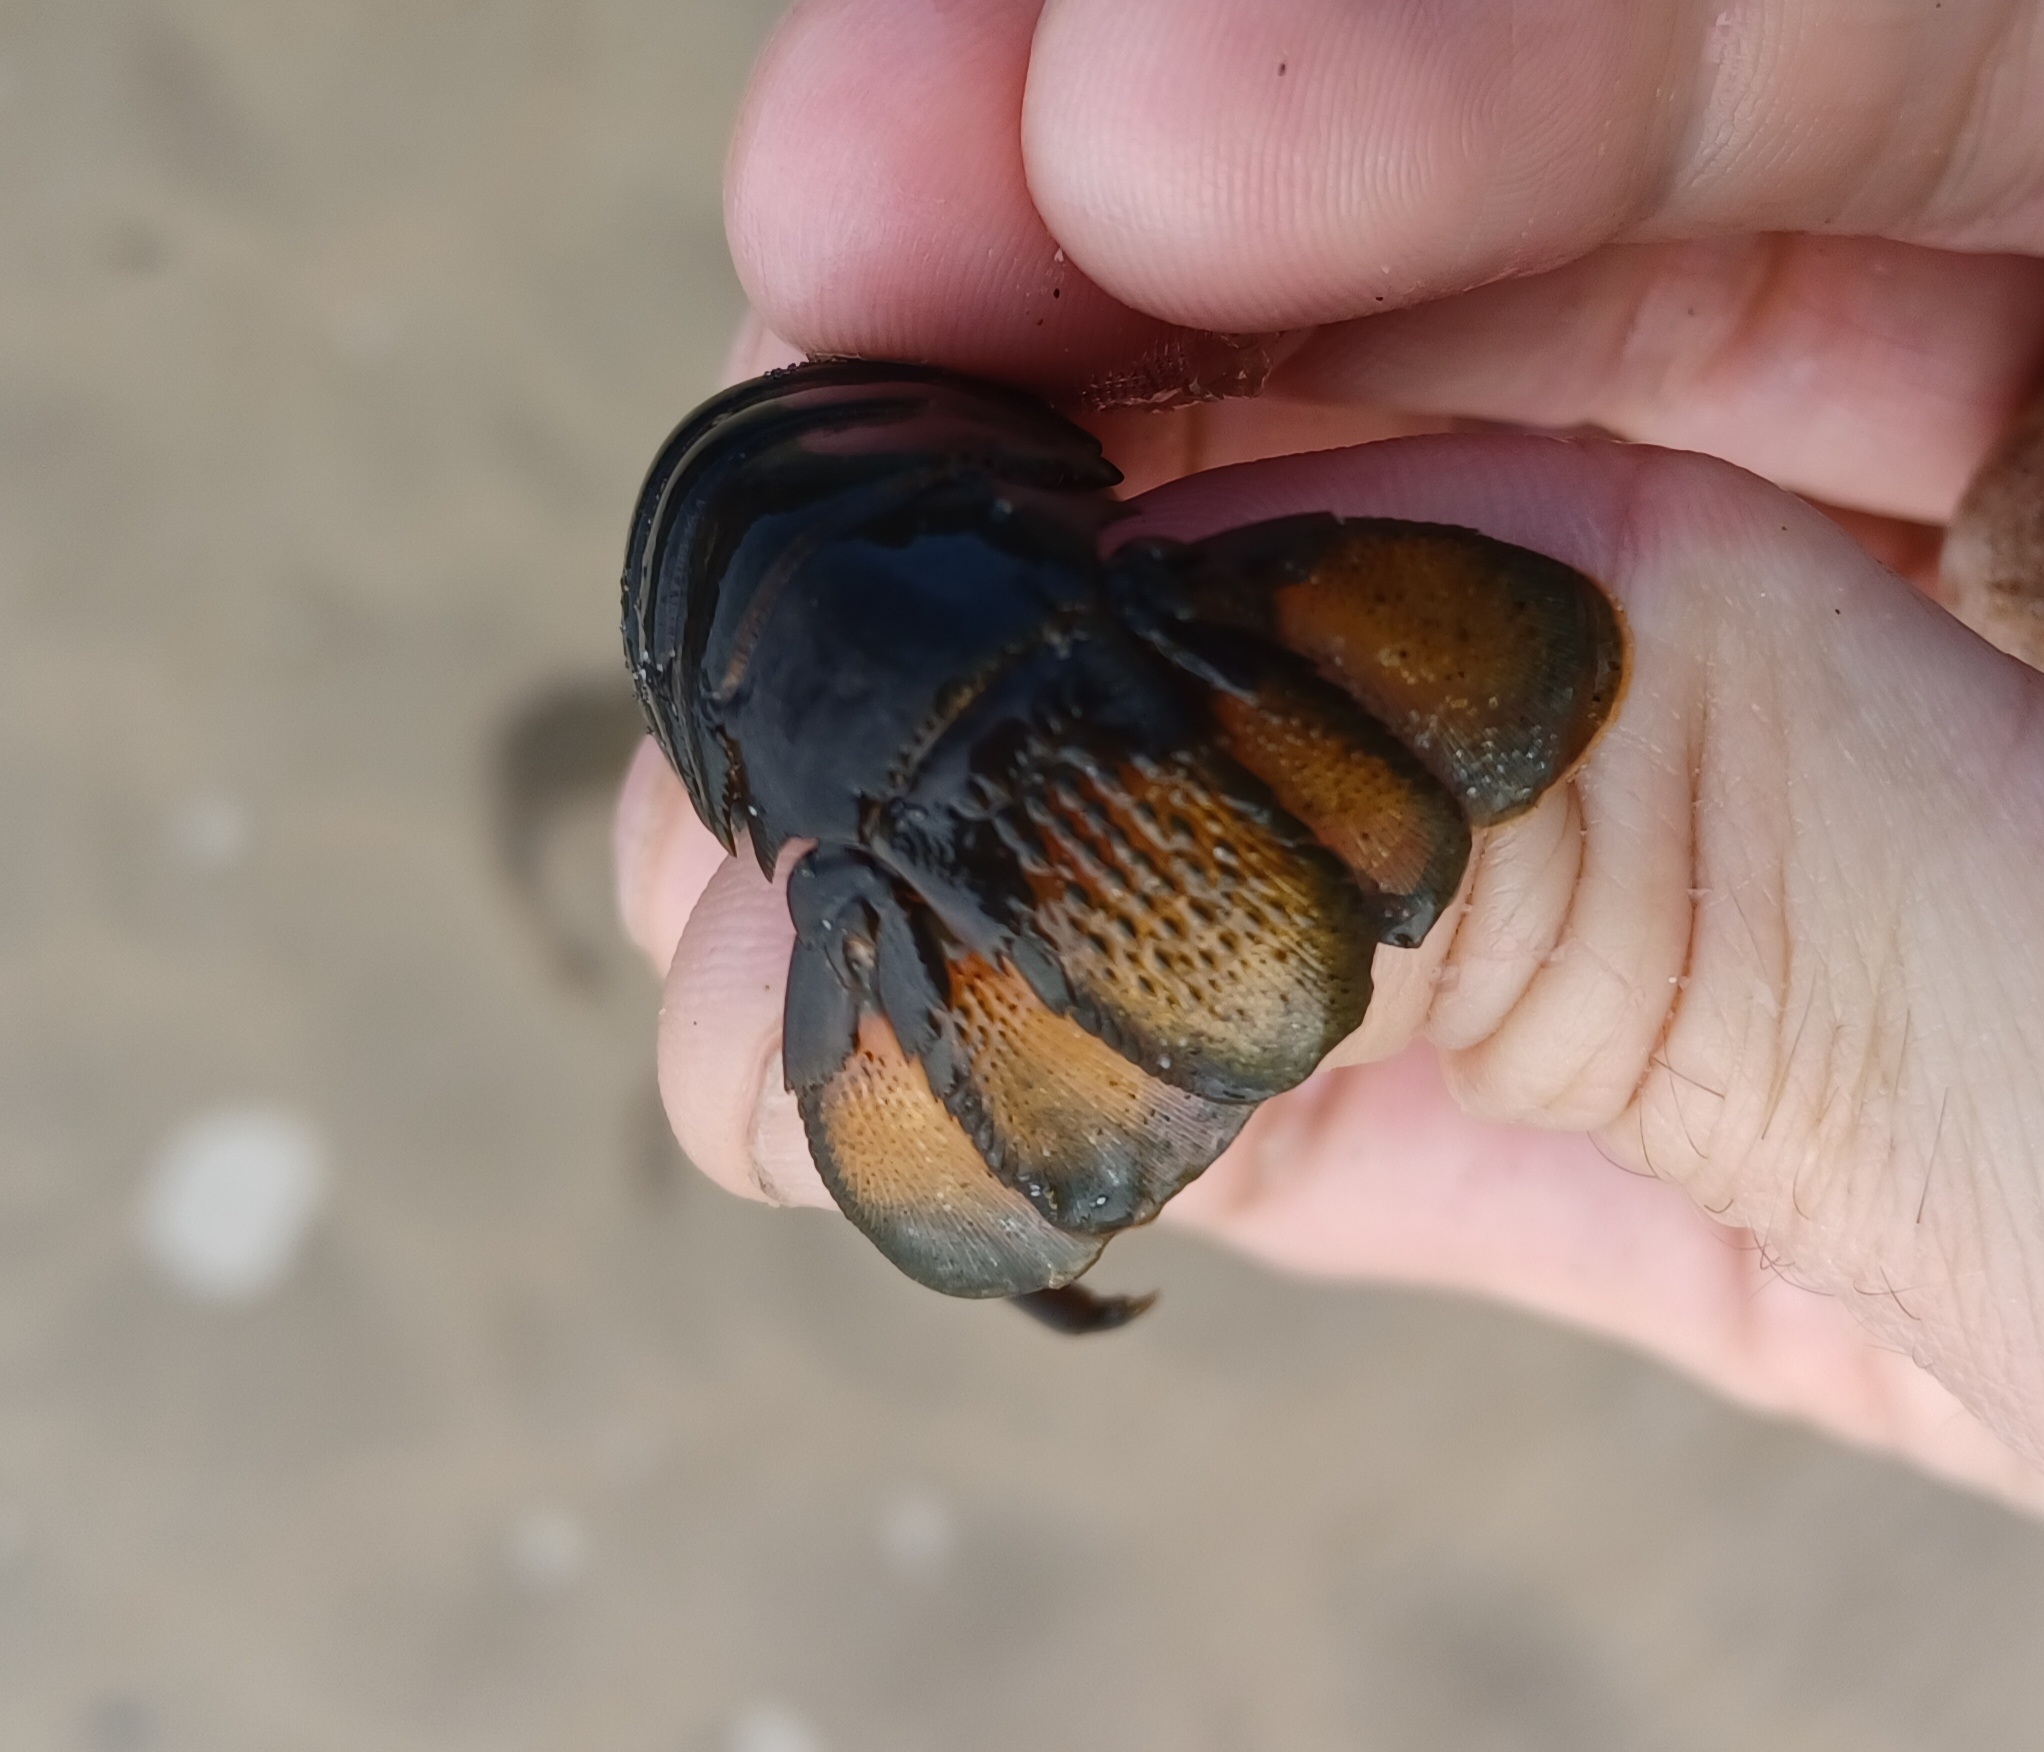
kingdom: Animalia
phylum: Arthropoda
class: Malacostraca
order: Decapoda
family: Palinuridae
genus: Sagmariasus
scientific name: Sagmariasus verreauxi
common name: Green rock lobster
